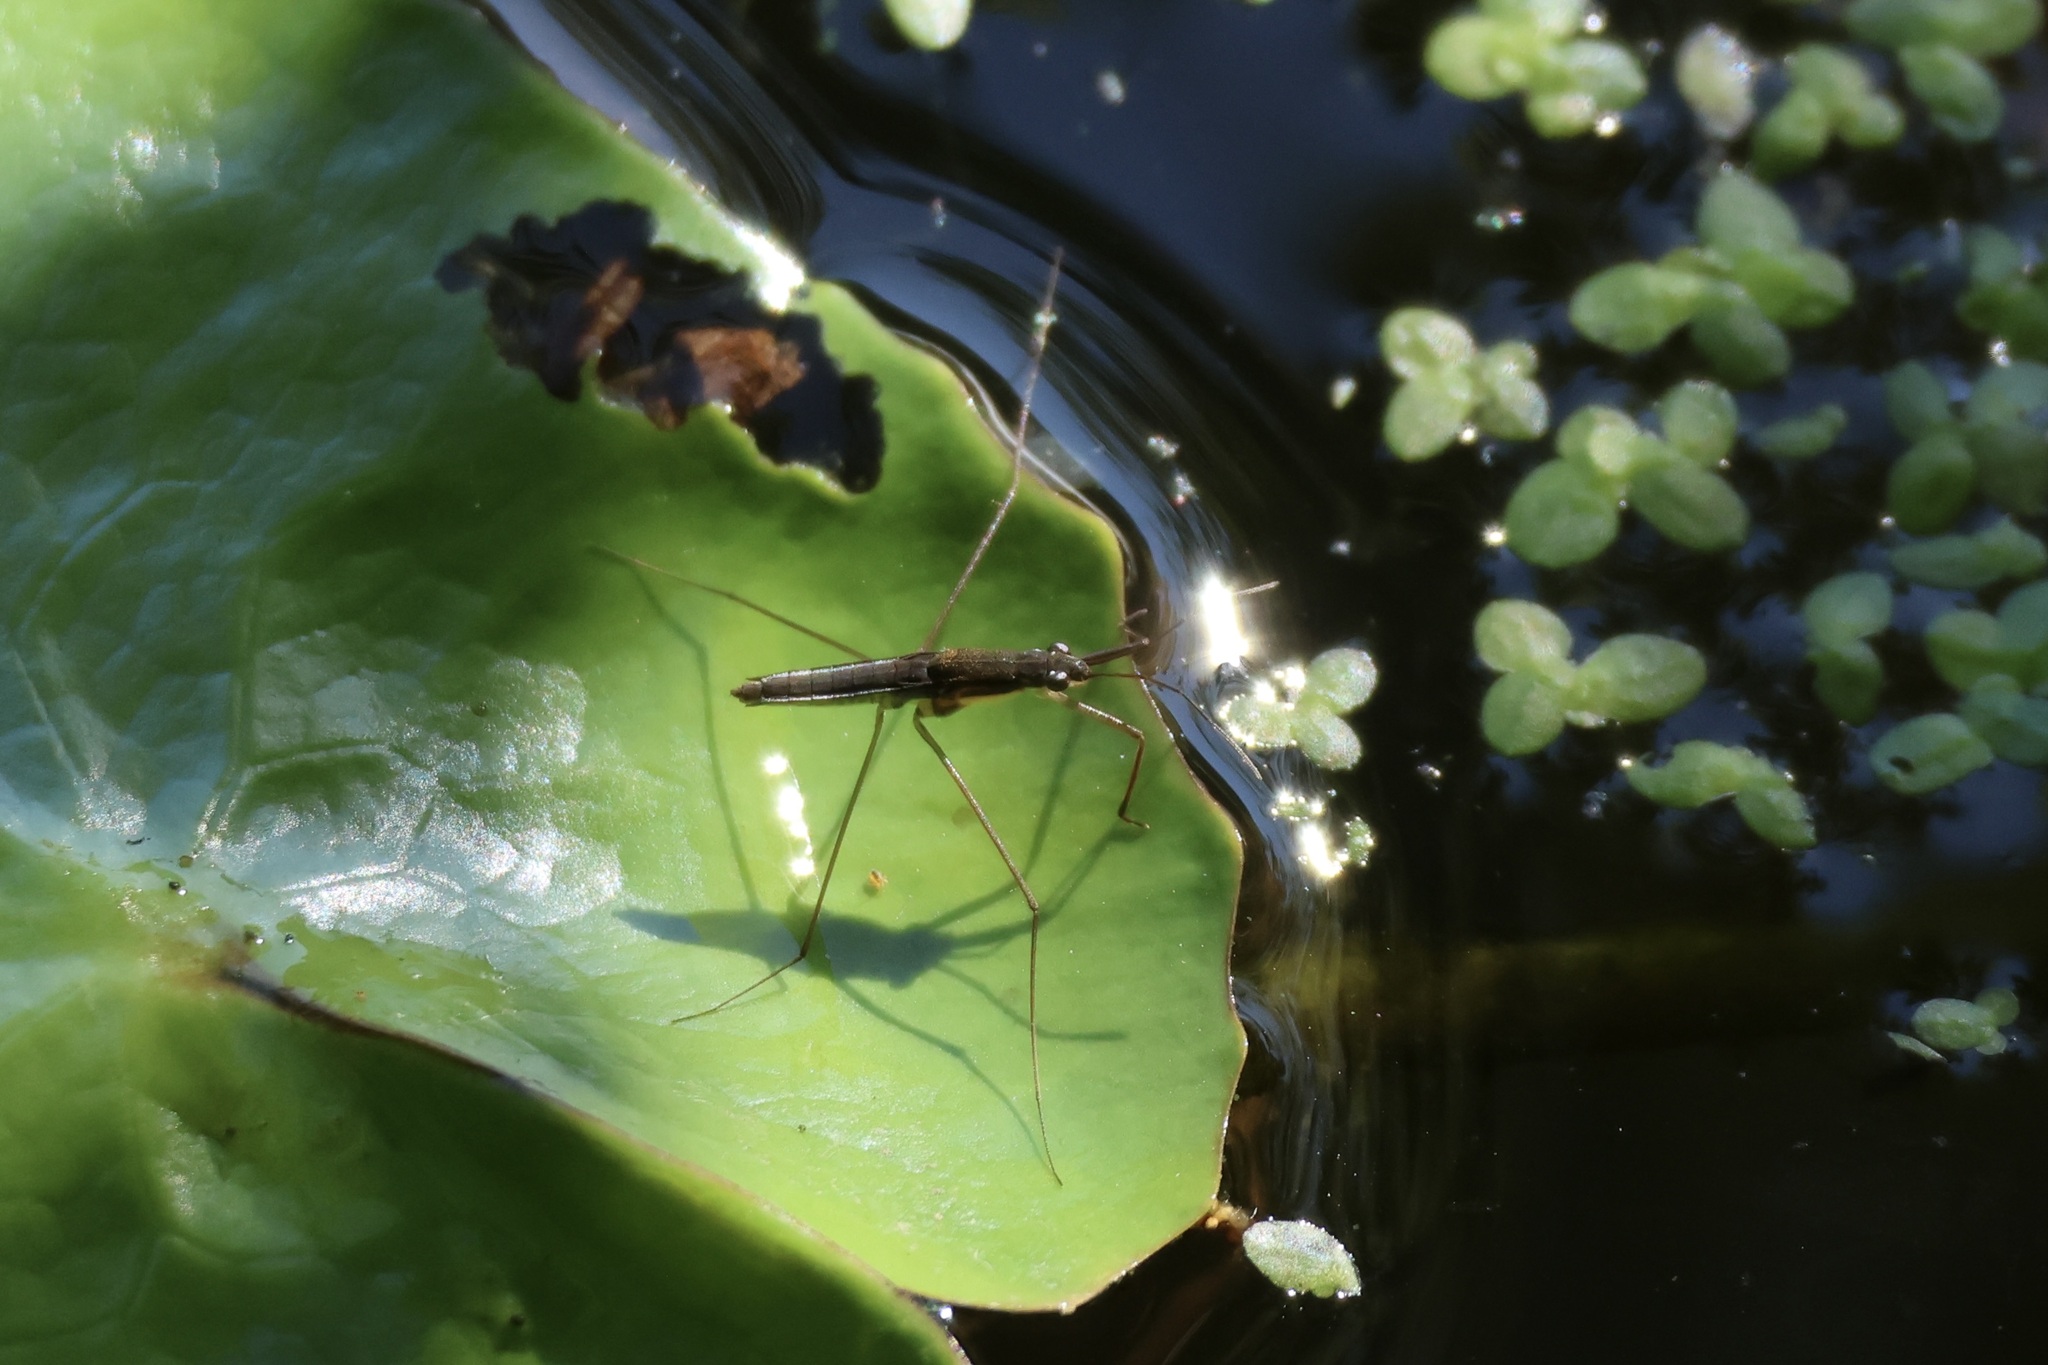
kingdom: Animalia
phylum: Arthropoda
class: Insecta
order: Hemiptera
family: Gerridae
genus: Limnoporus
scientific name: Limnoporus canaliculatus
